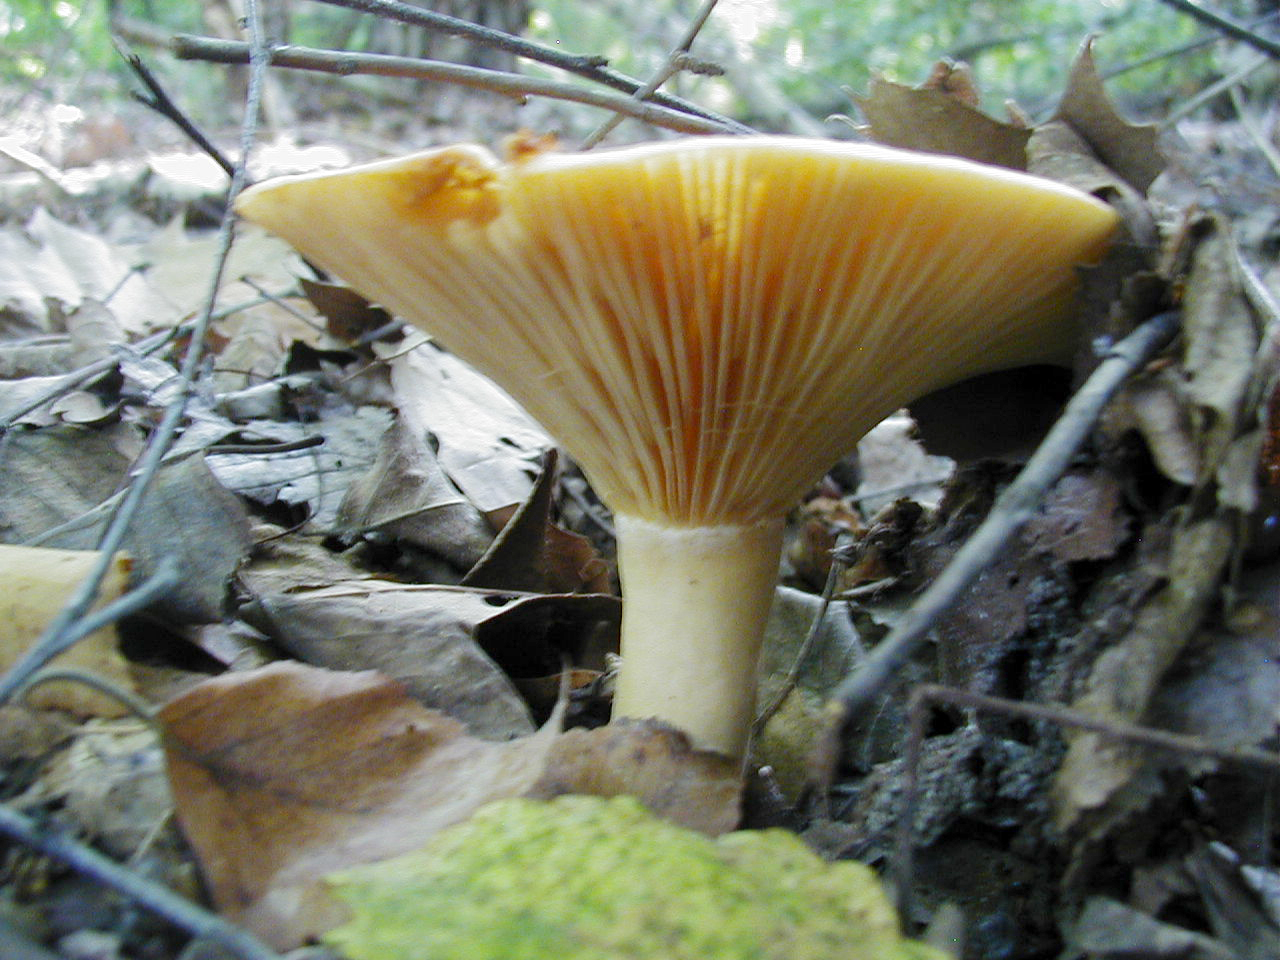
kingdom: Fungi
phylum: Basidiomycota
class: Agaricomycetes
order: Russulales
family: Russulaceae
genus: Lactarius
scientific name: Lactarius hygrophoroides
